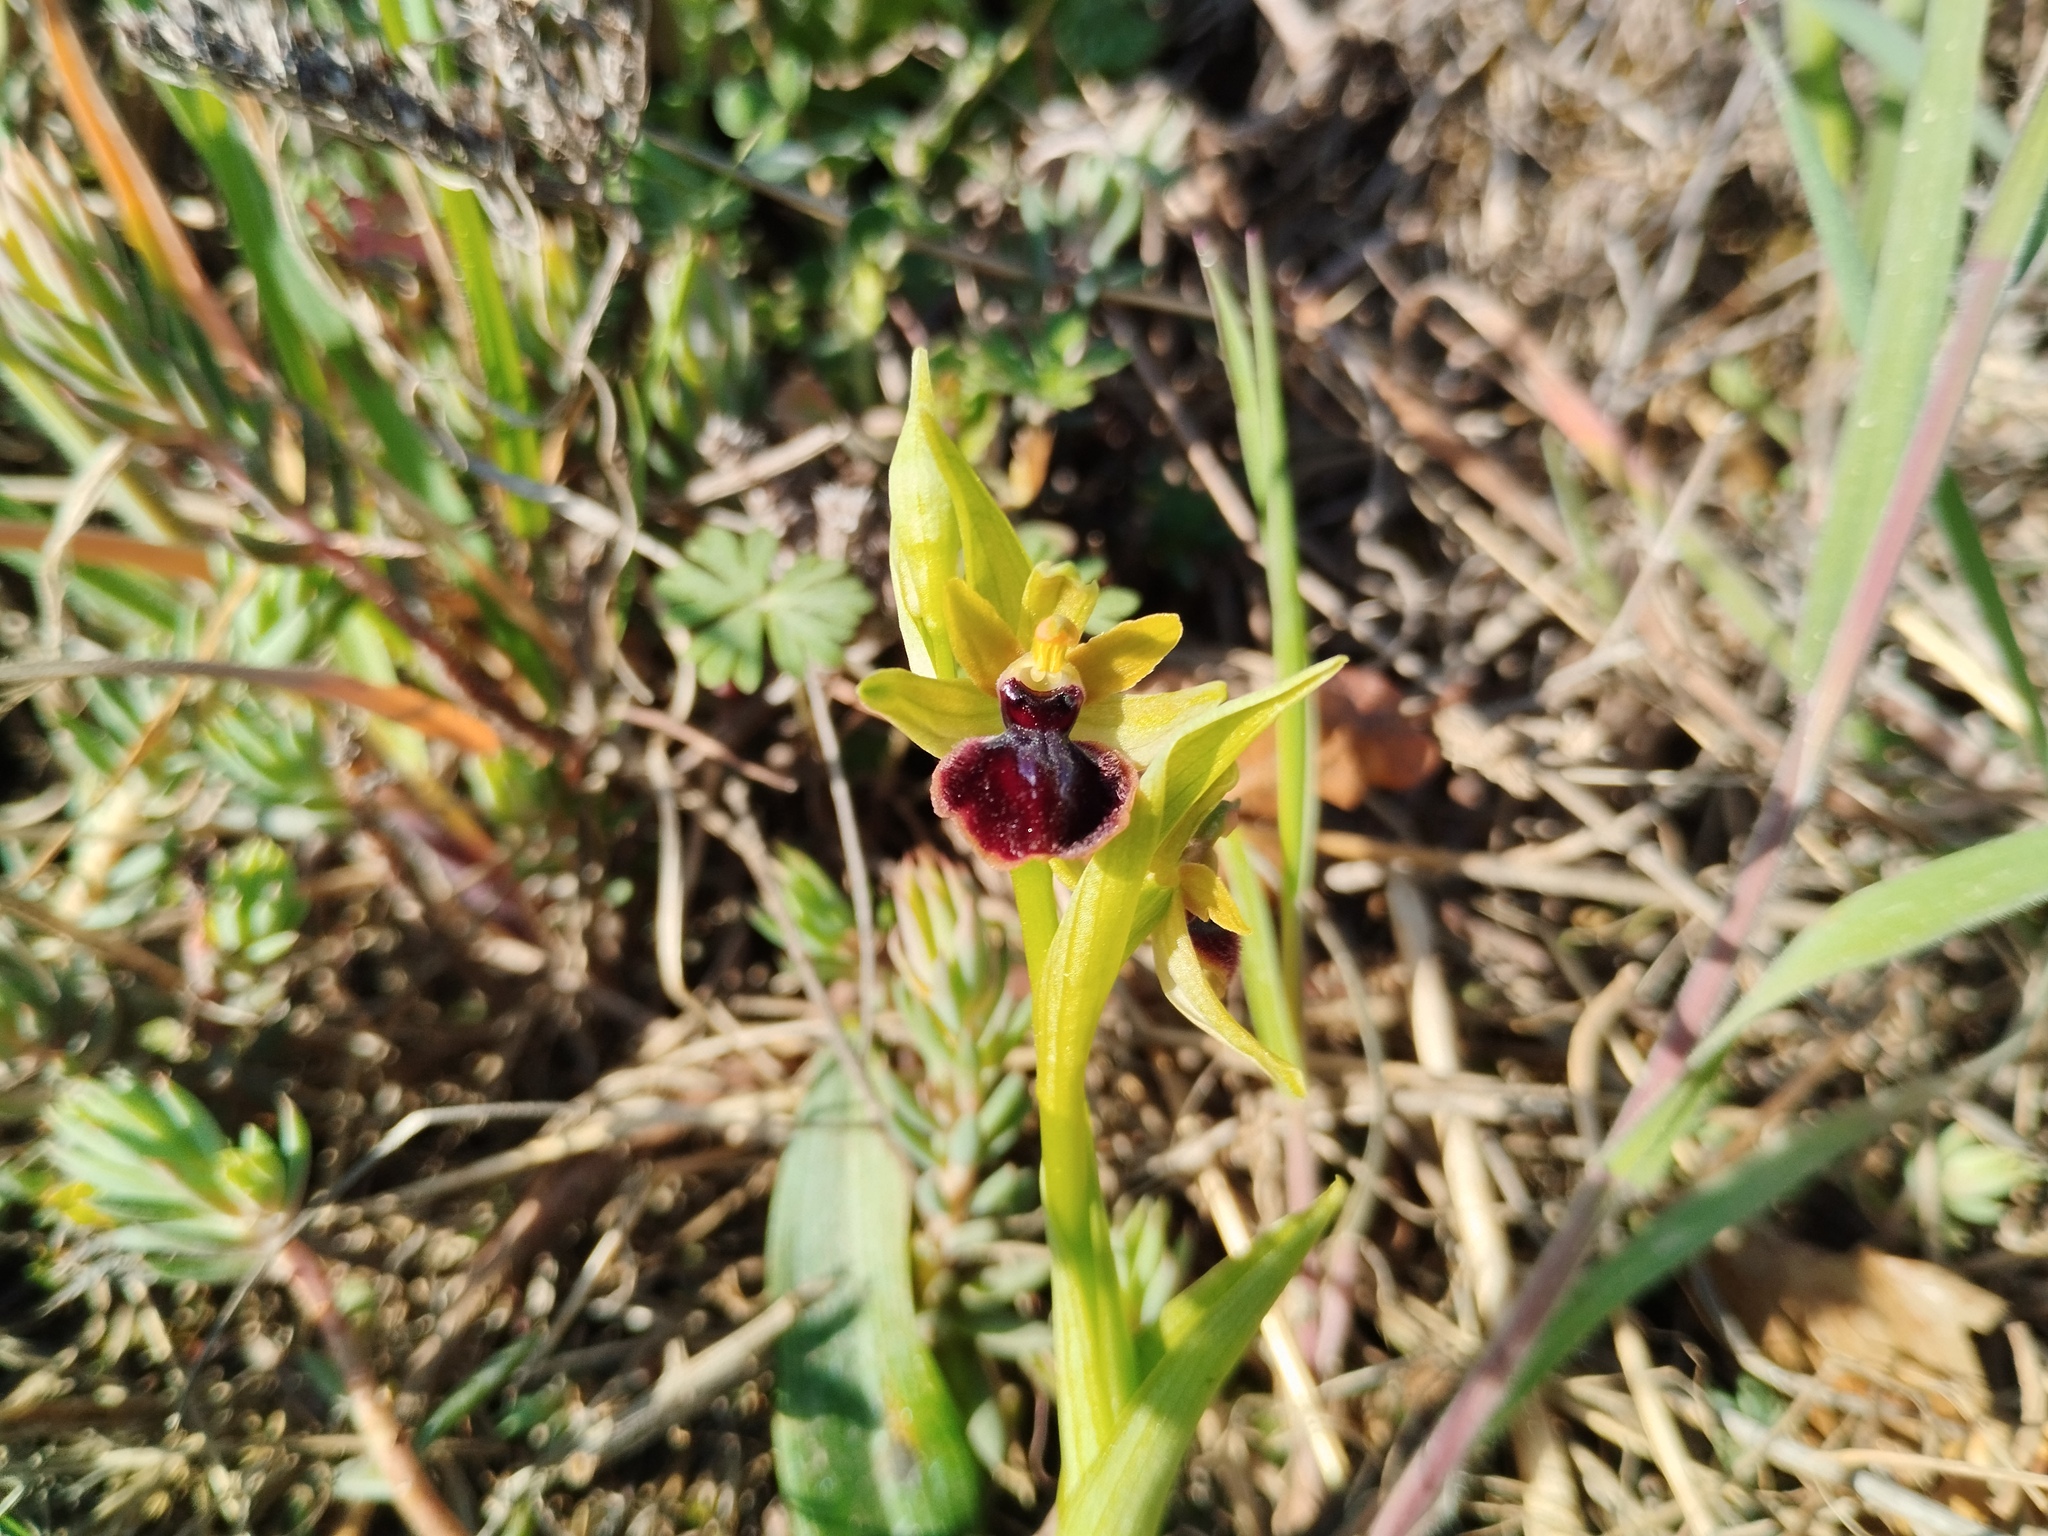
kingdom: Plantae
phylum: Tracheophyta
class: Liliopsida
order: Asparagales
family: Orchidaceae
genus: Ophrys
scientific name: Ophrys sphegodes
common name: Early spider-orchid
